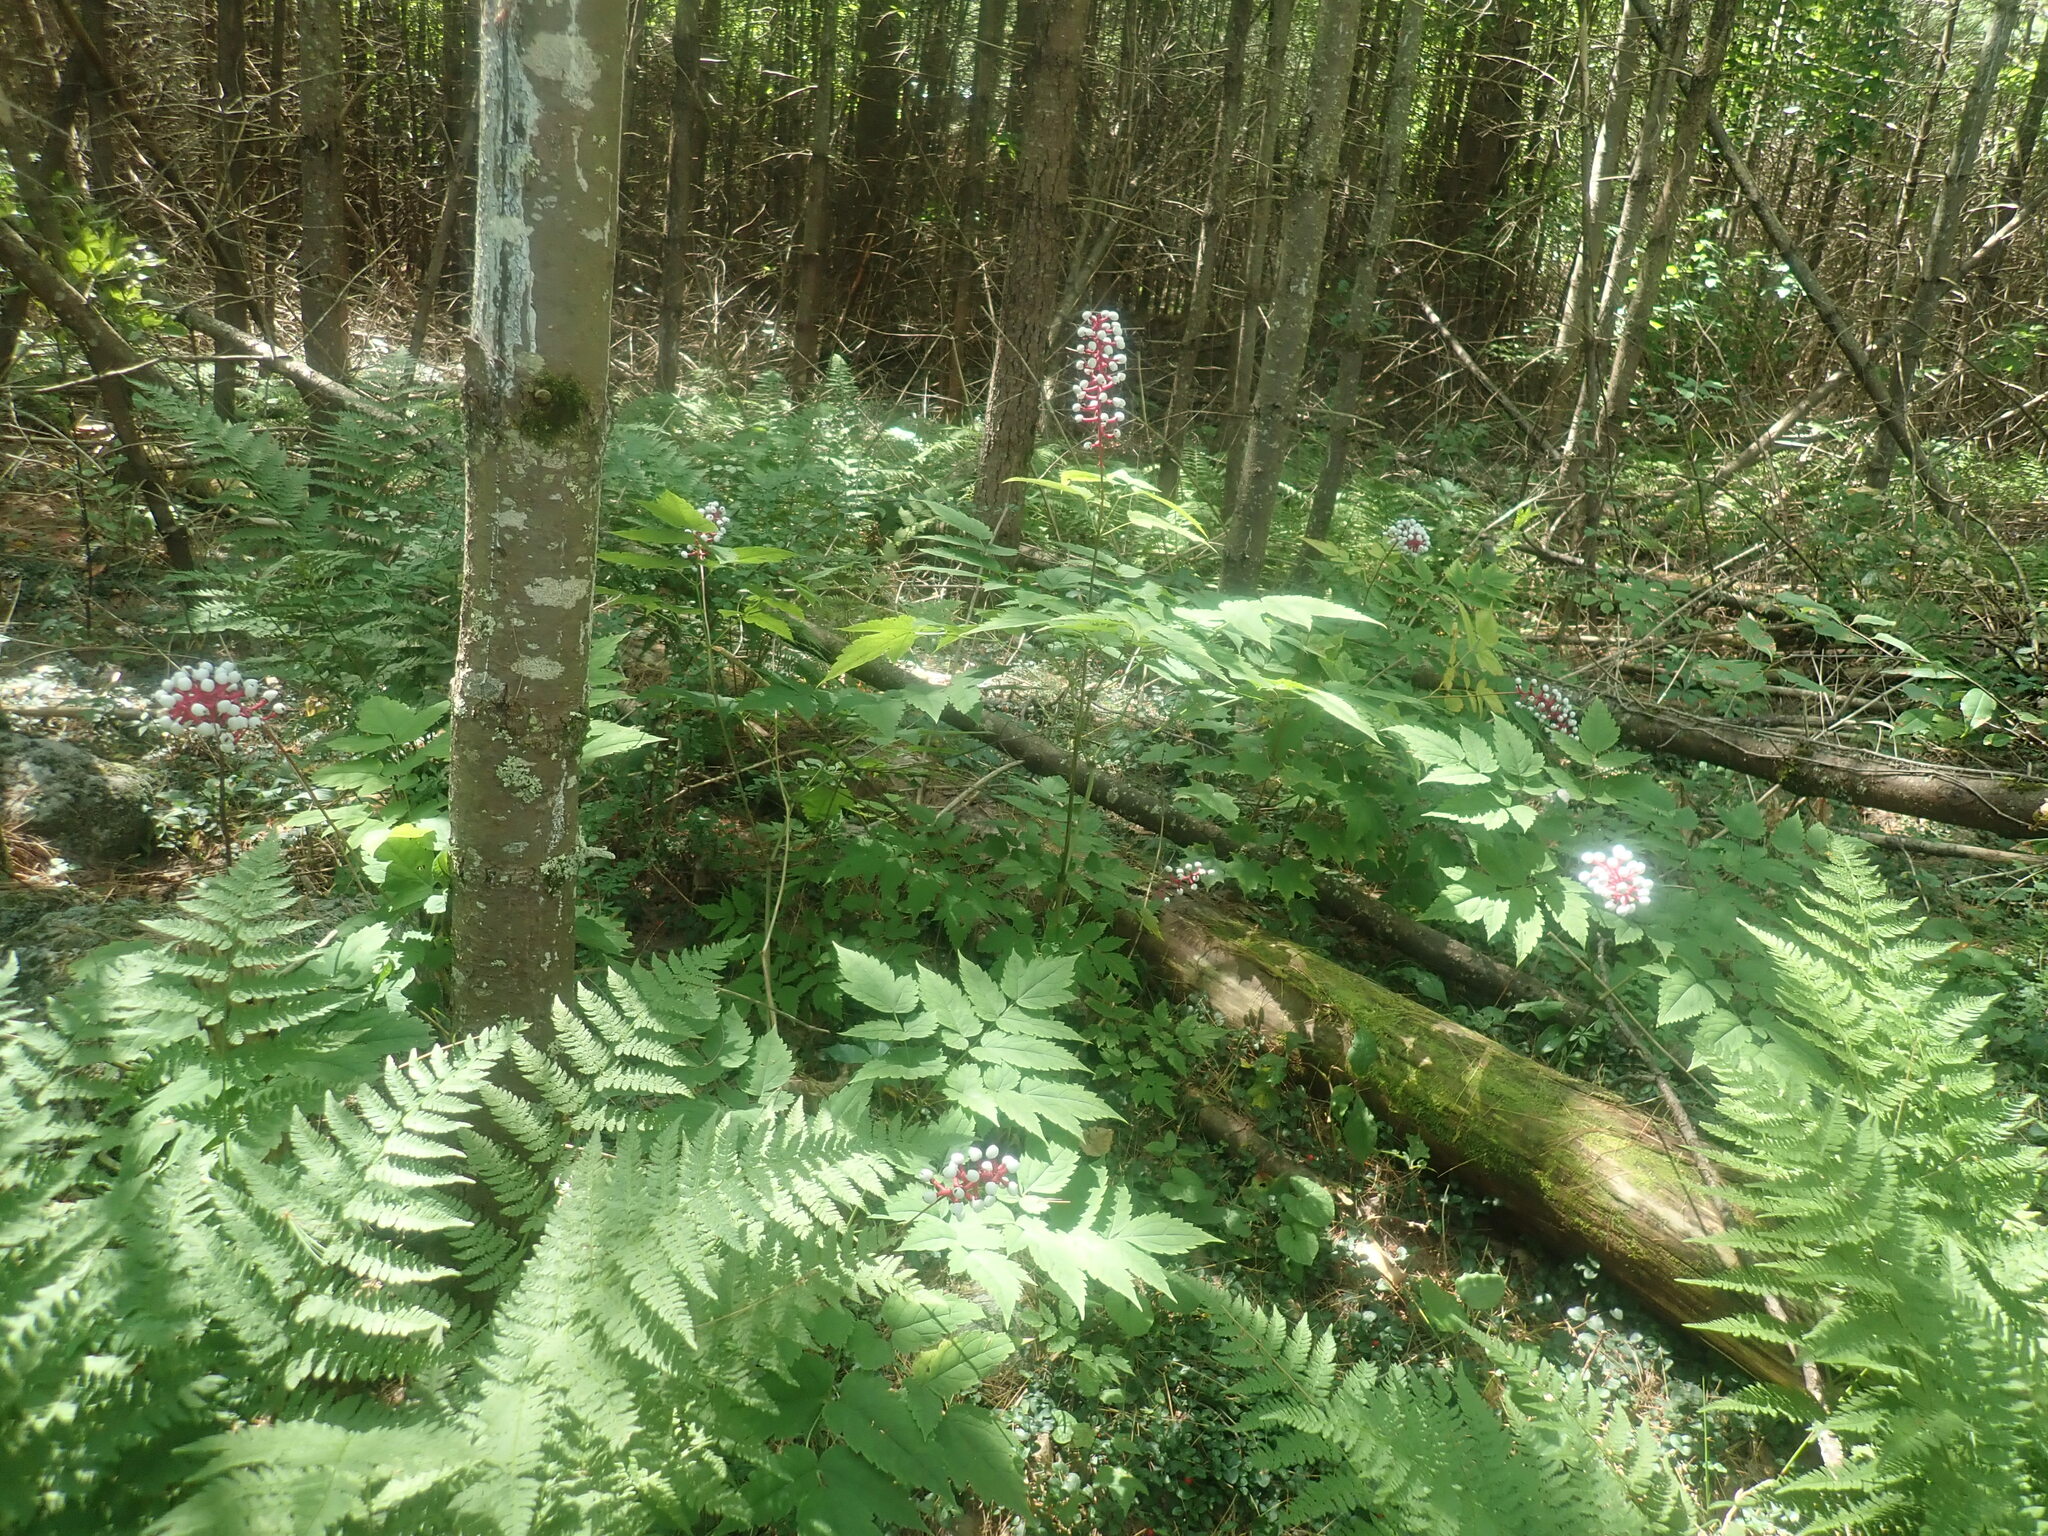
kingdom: Plantae
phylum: Tracheophyta
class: Magnoliopsida
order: Ranunculales
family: Ranunculaceae
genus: Actaea
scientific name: Actaea pachypoda
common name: Doll's-eyes
